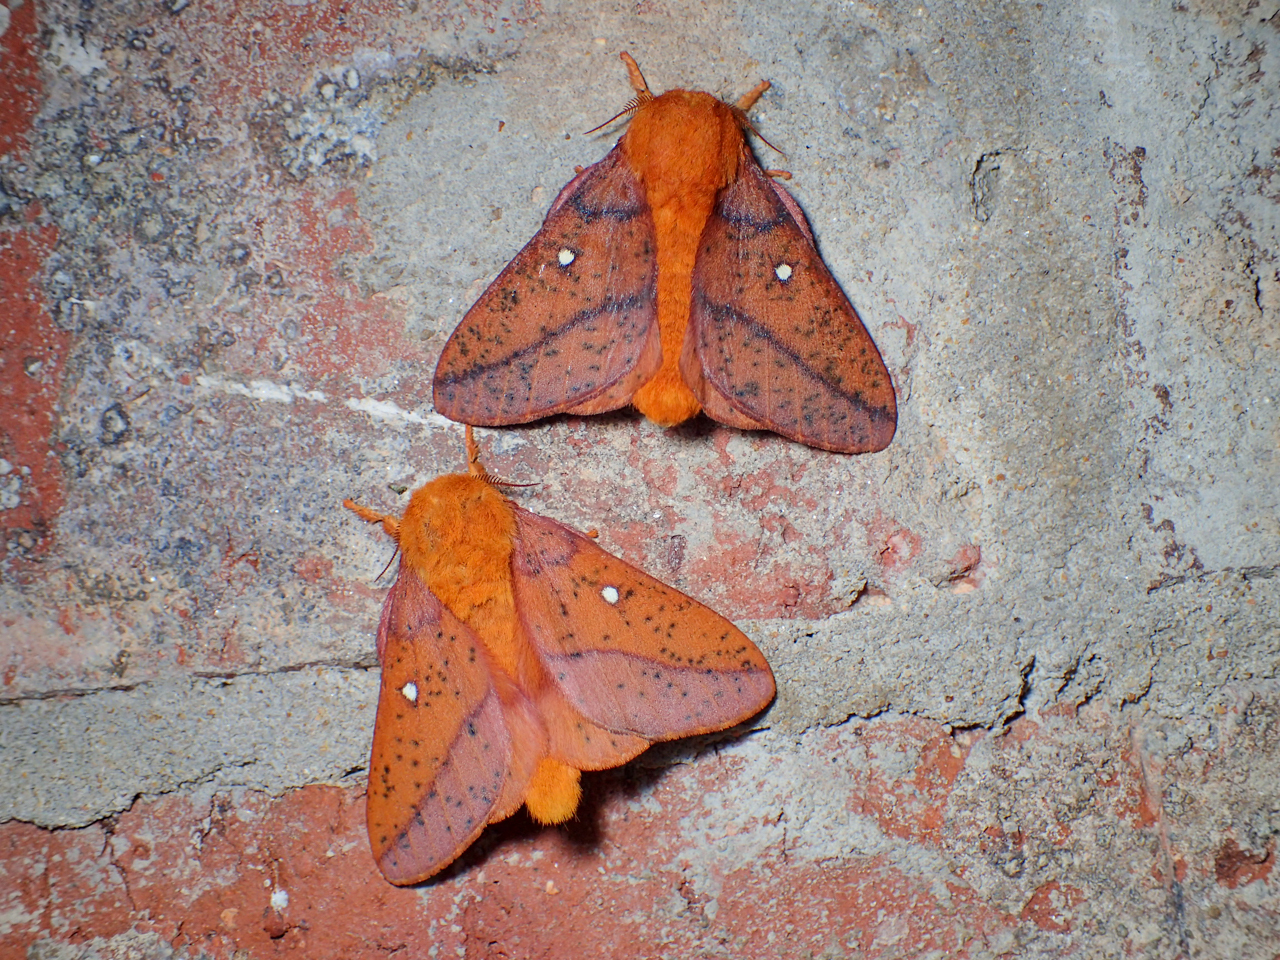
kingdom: Animalia
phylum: Arthropoda
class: Insecta
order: Lepidoptera
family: Saturniidae
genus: Anisota
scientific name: Anisota stigma
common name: Spiny oakworm moth
